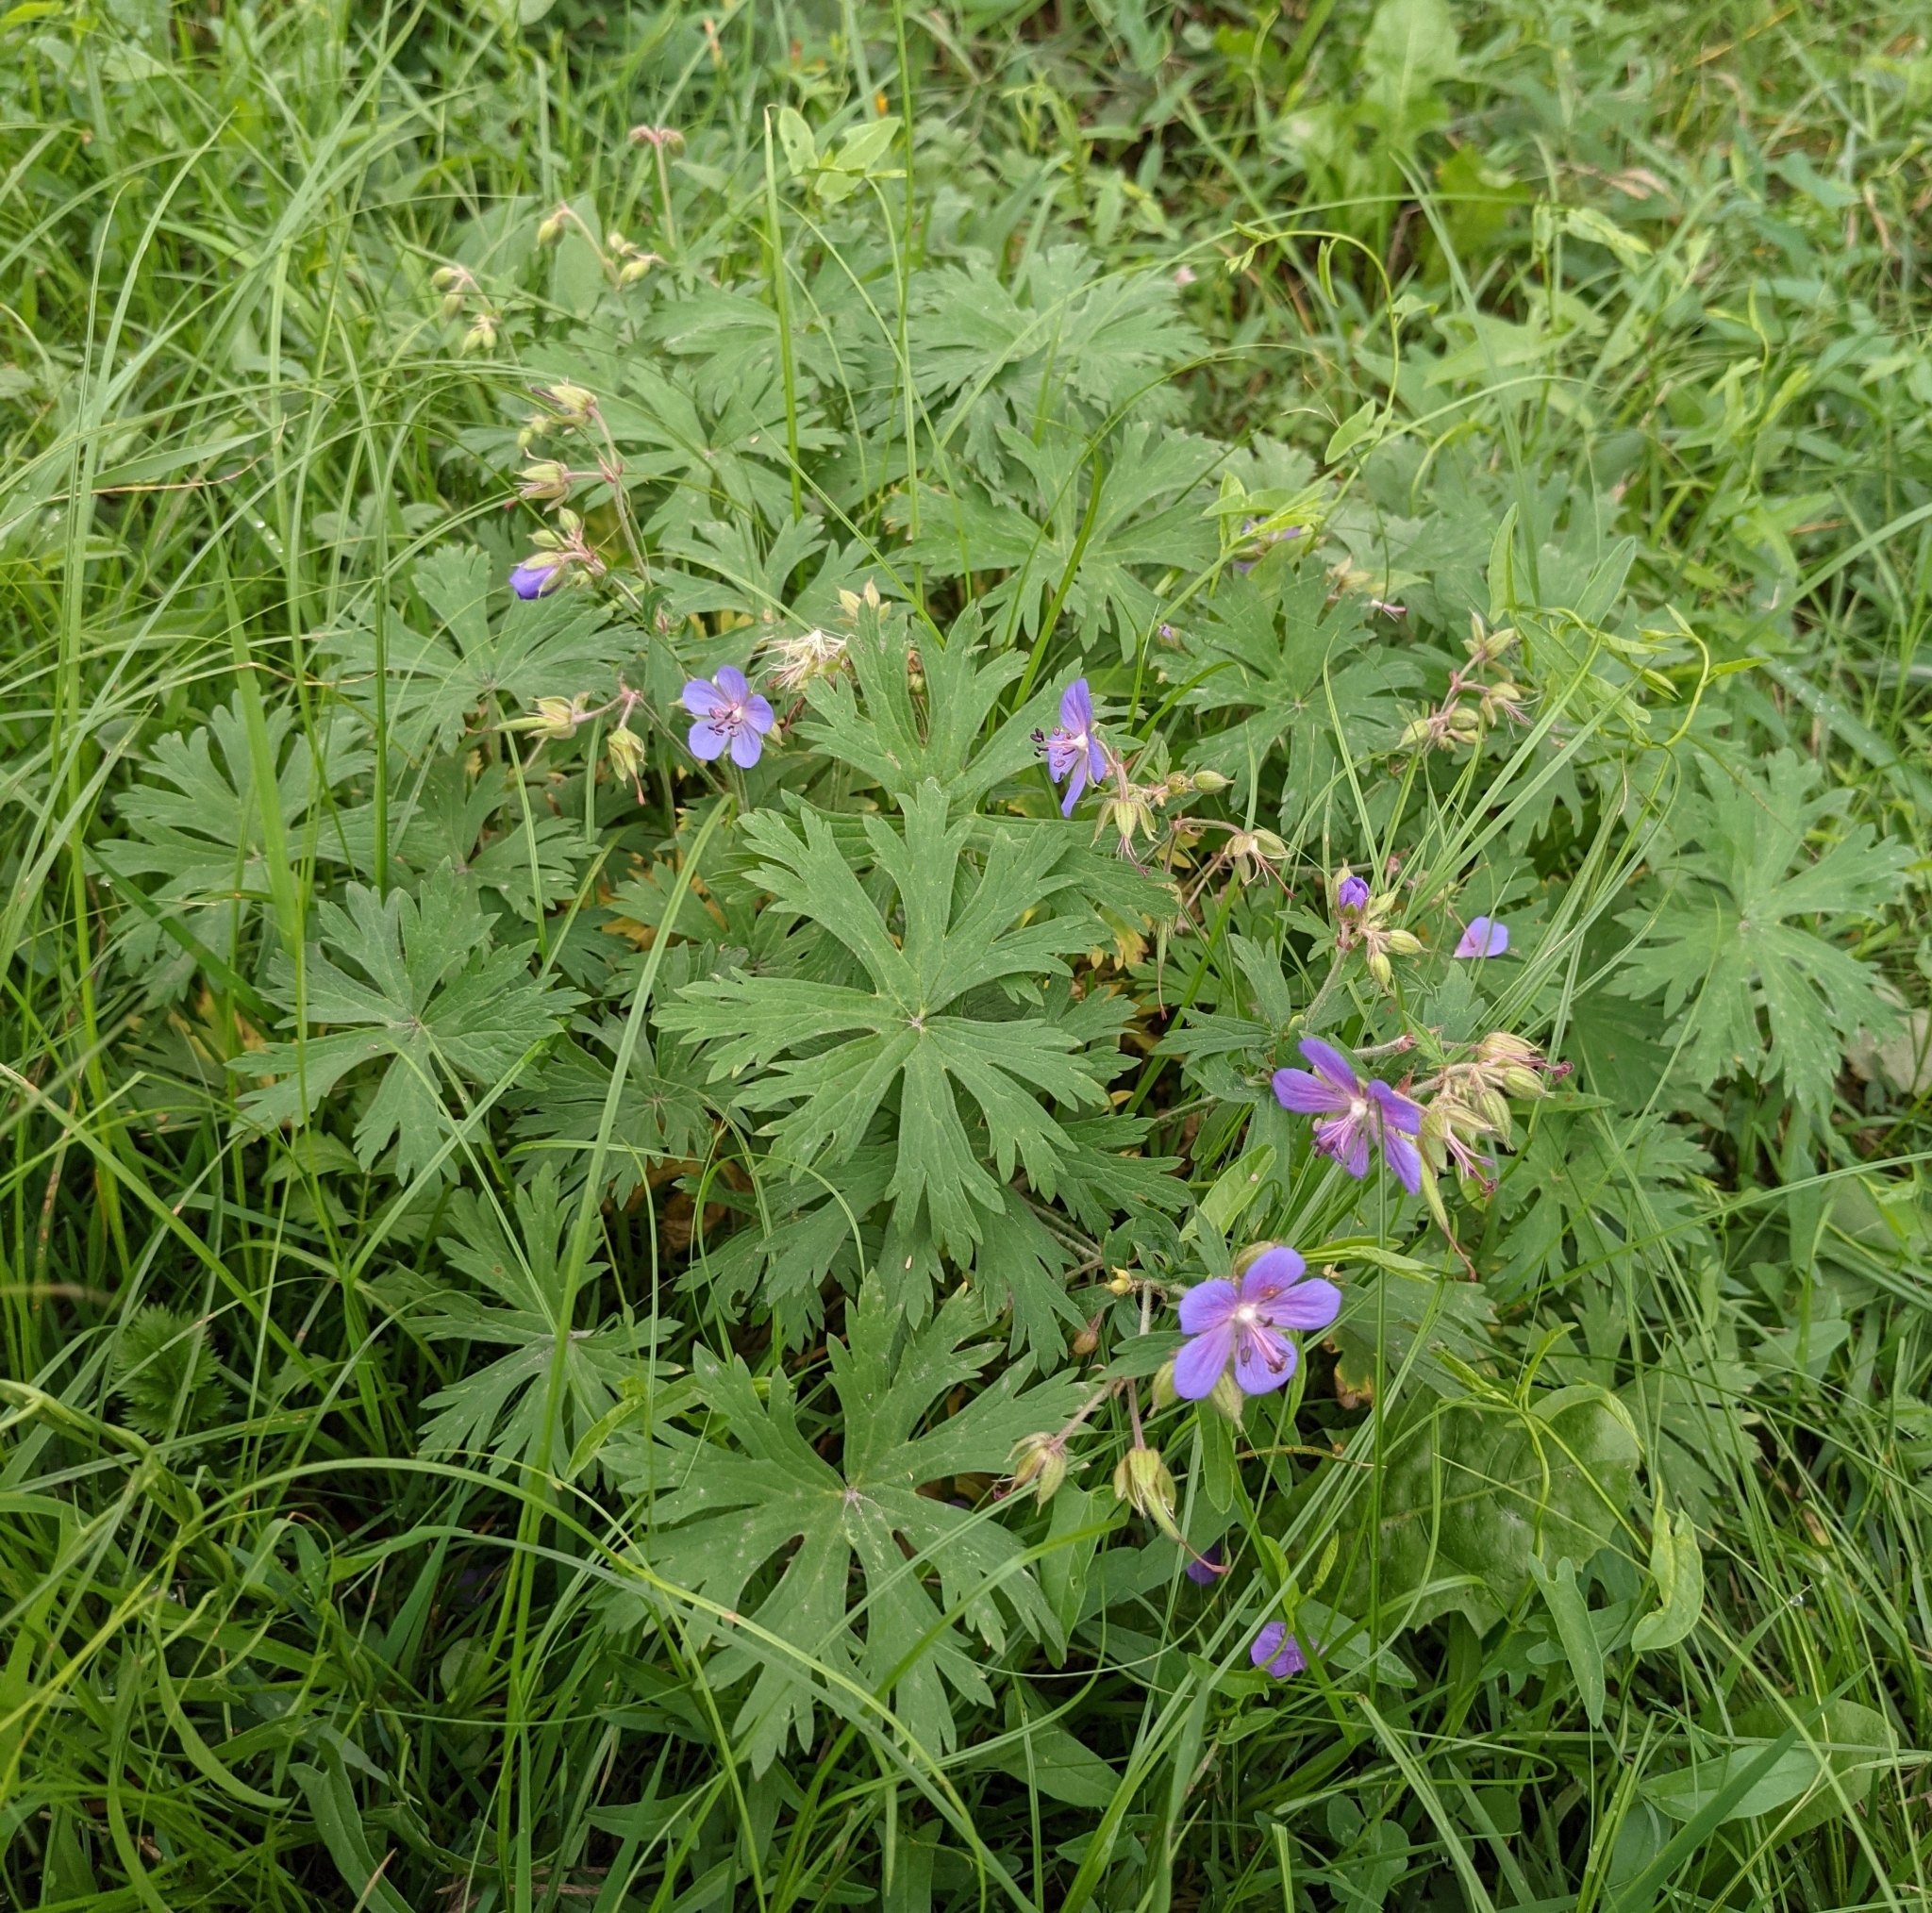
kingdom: Plantae
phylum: Tracheophyta
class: Magnoliopsida
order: Geraniales
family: Geraniaceae
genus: Geranium
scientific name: Geranium pratense
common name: Meadow crane's-bill
